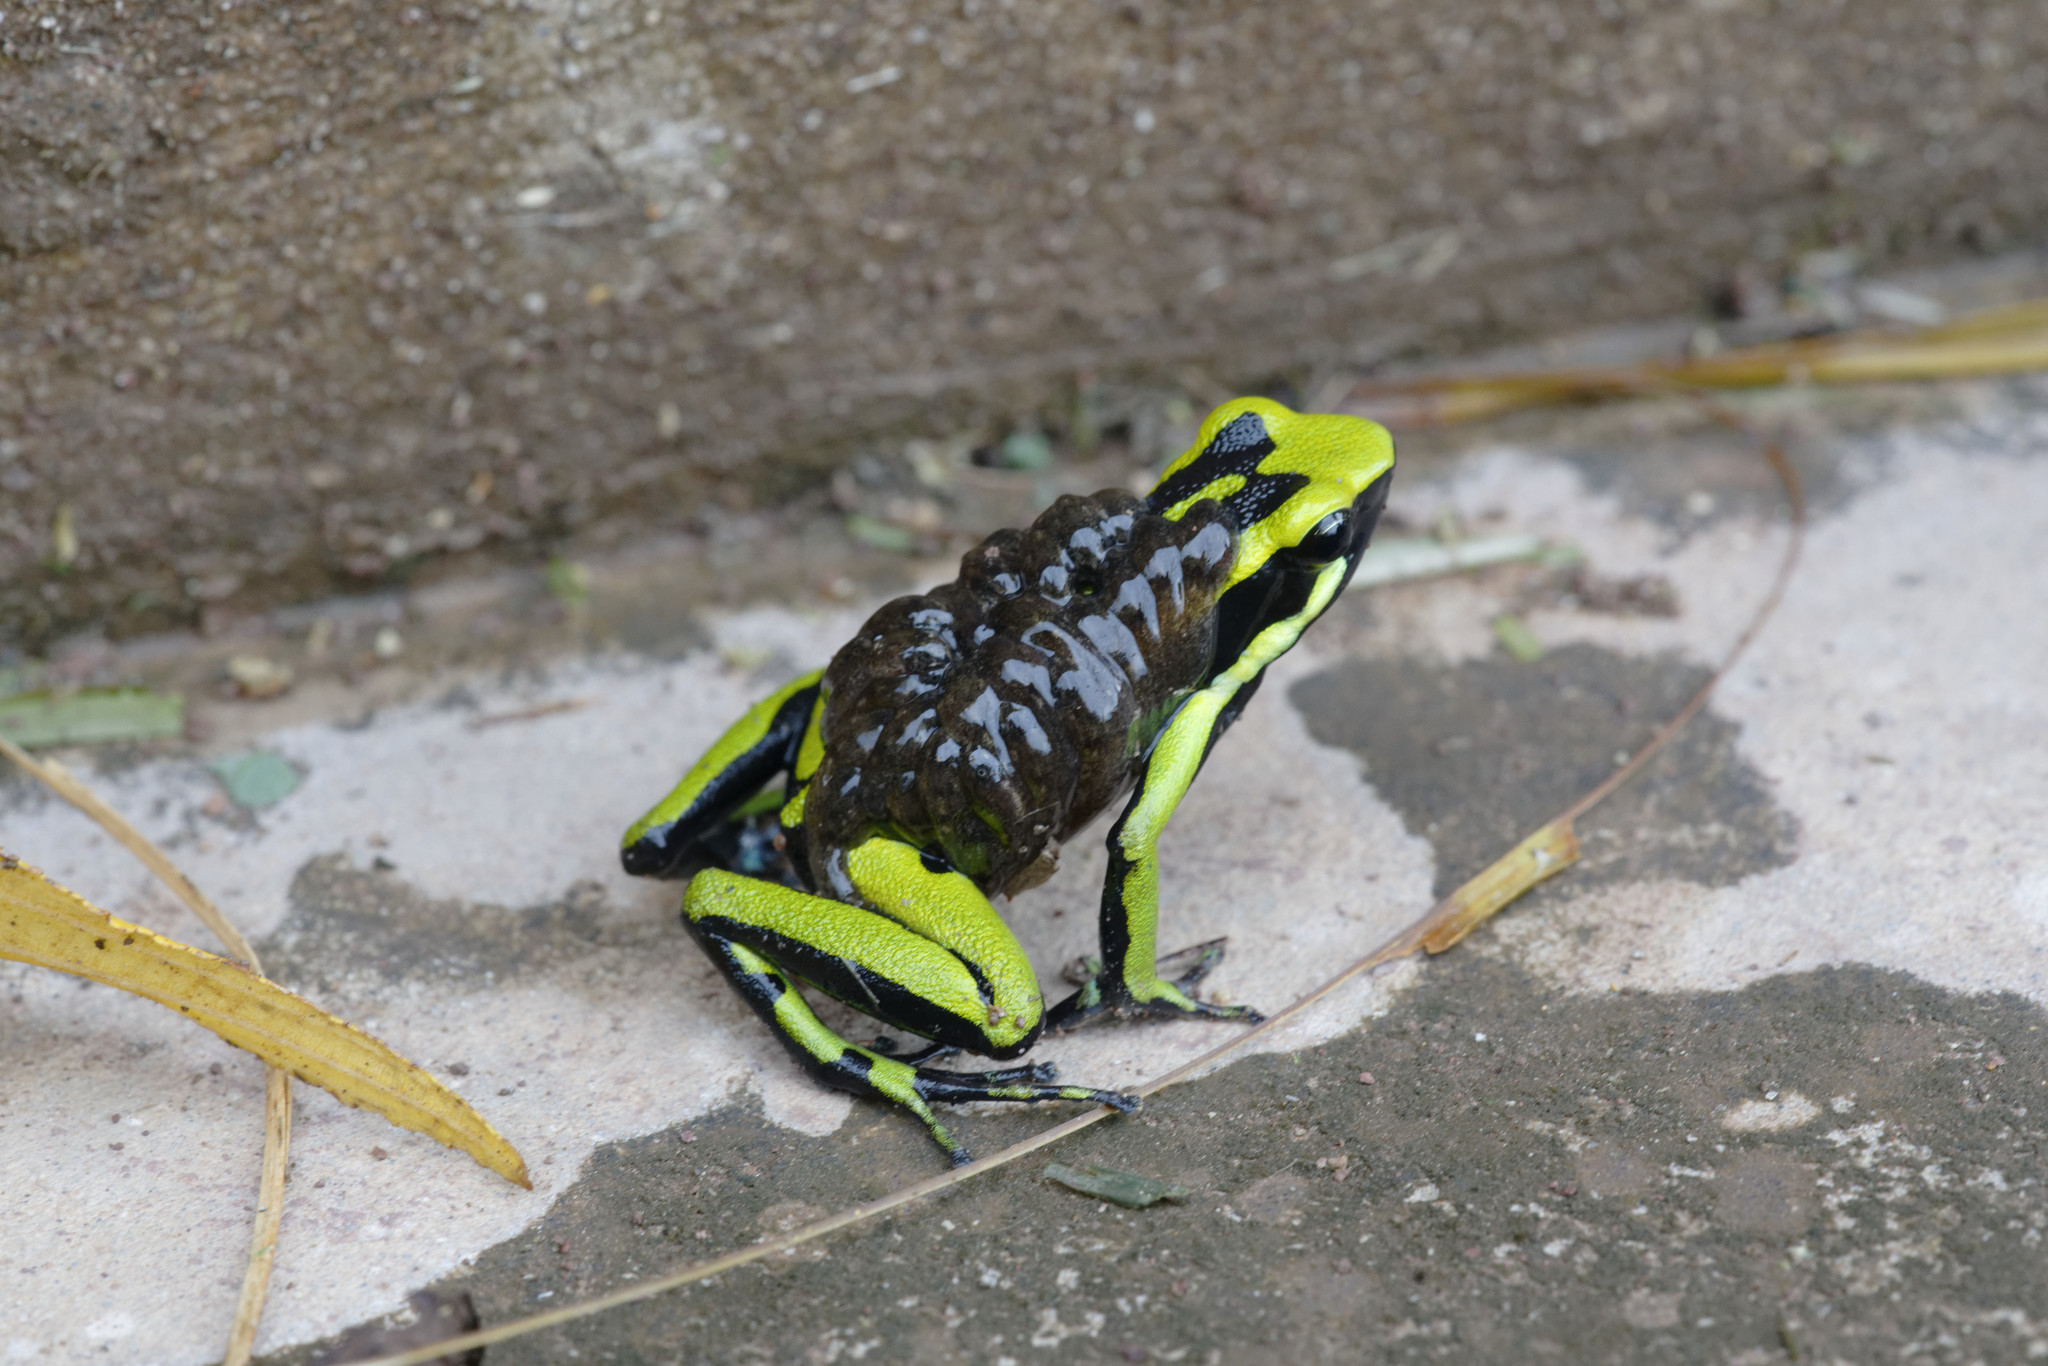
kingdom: Animalia
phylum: Chordata
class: Amphibia
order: Anura
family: Dendrobatidae
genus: Ameerega
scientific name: Ameerega trivittata
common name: Three-striped arrow-poison frog
